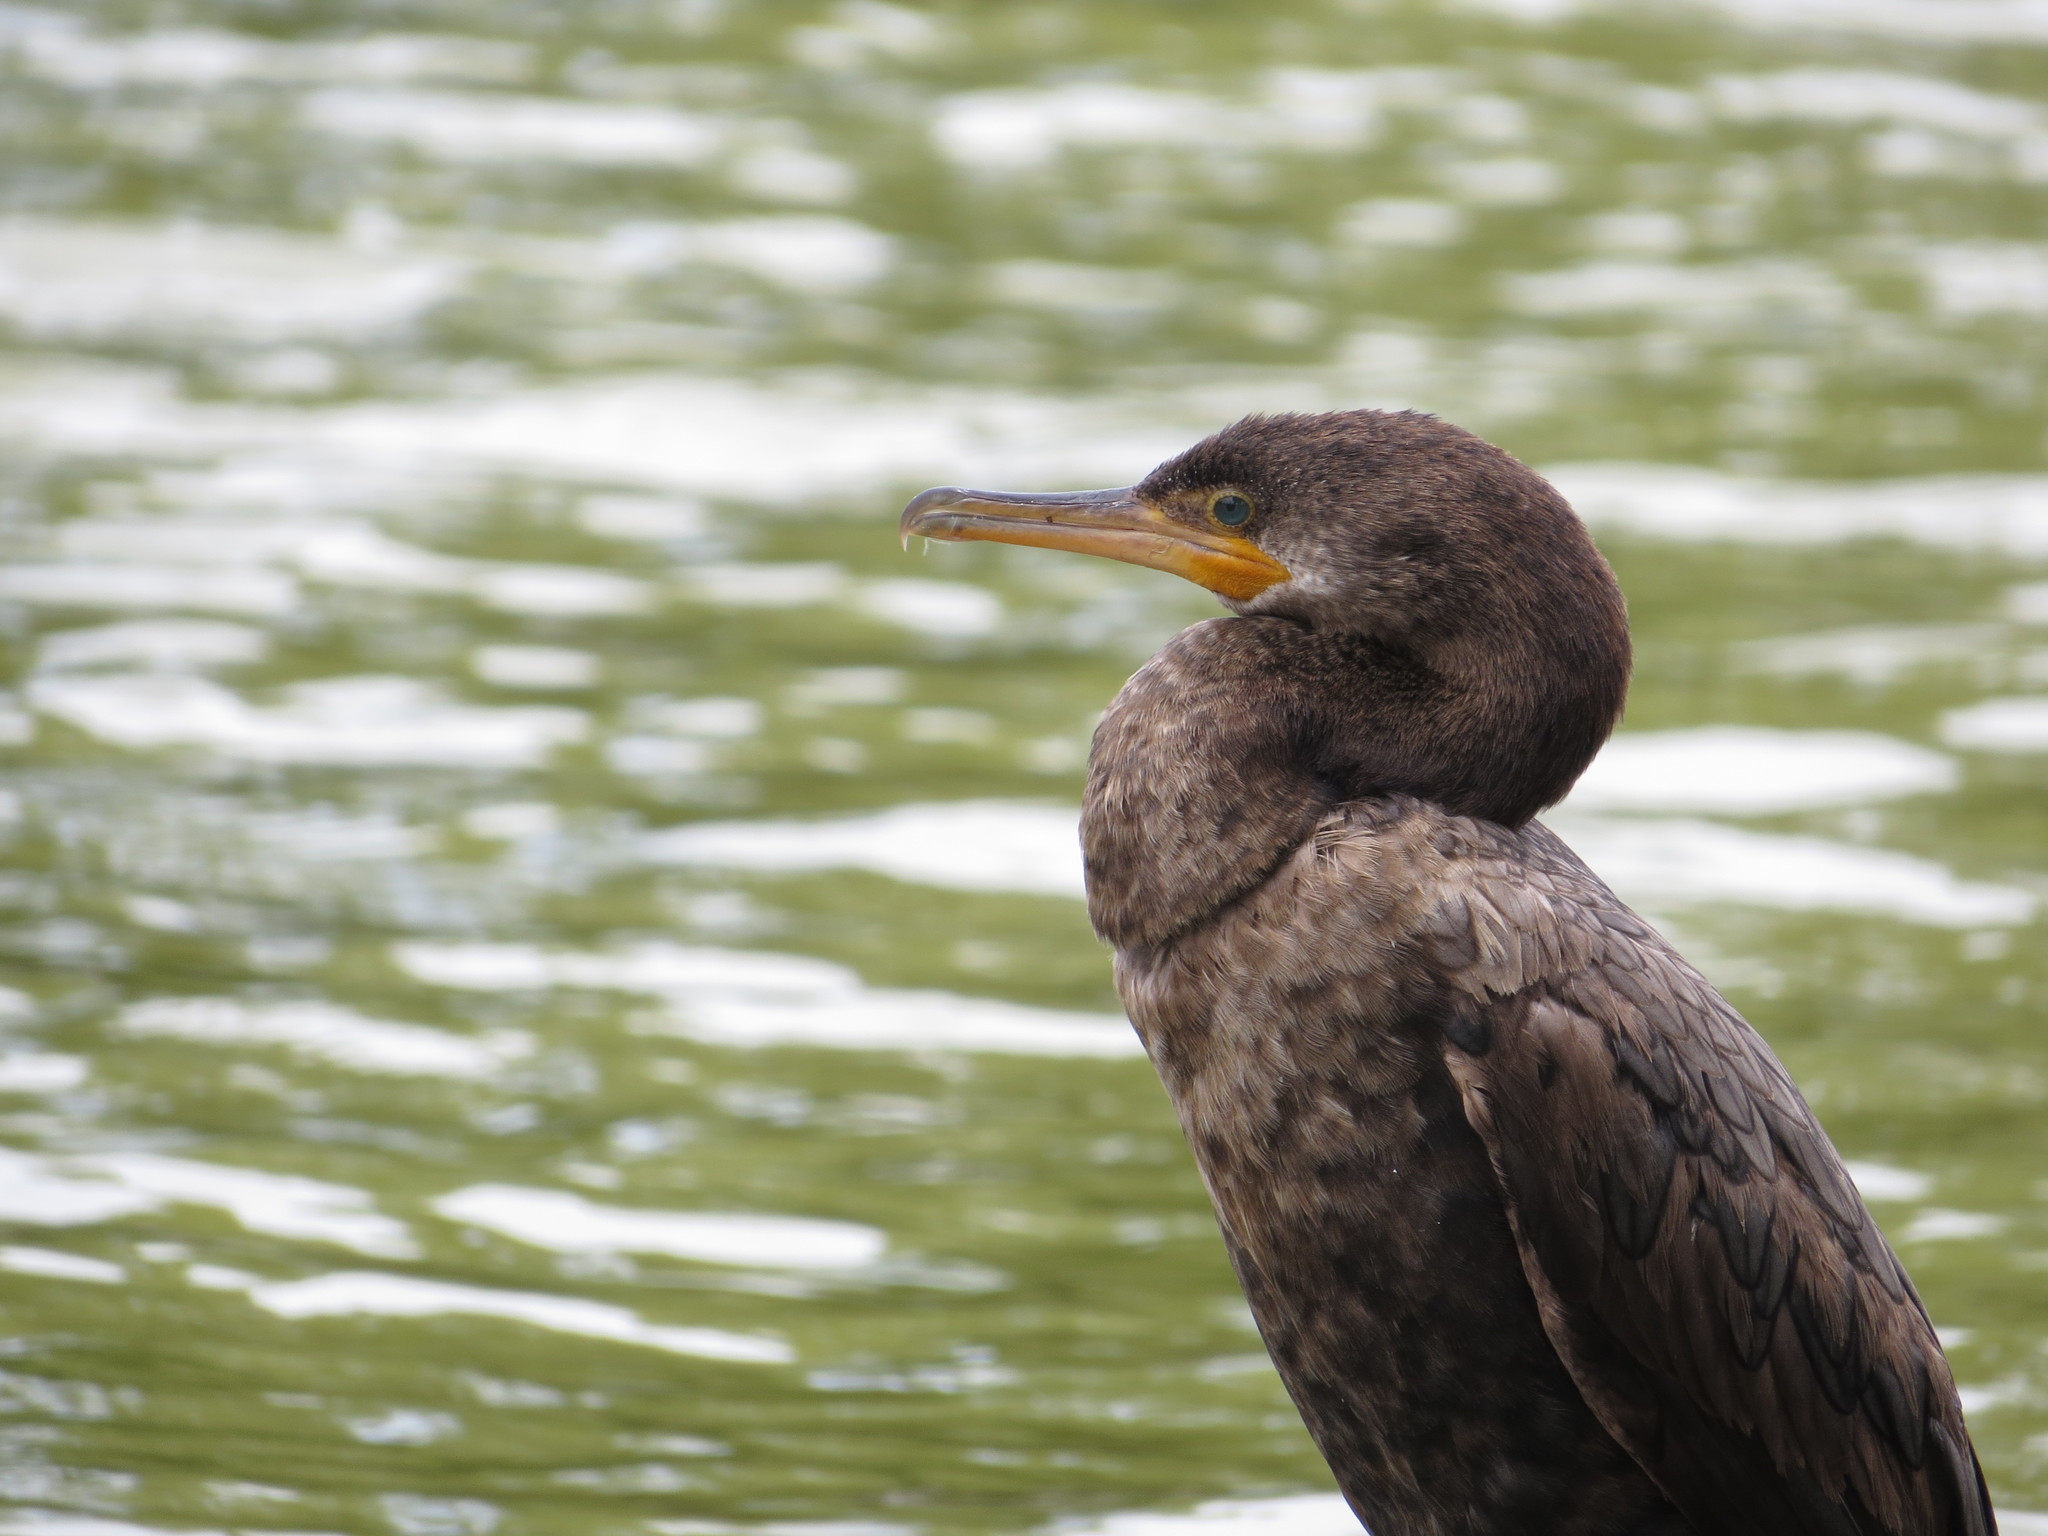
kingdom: Animalia
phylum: Chordata
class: Aves
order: Suliformes
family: Phalacrocoracidae
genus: Phalacrocorax
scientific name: Phalacrocorax brasilianus
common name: Neotropic cormorant
